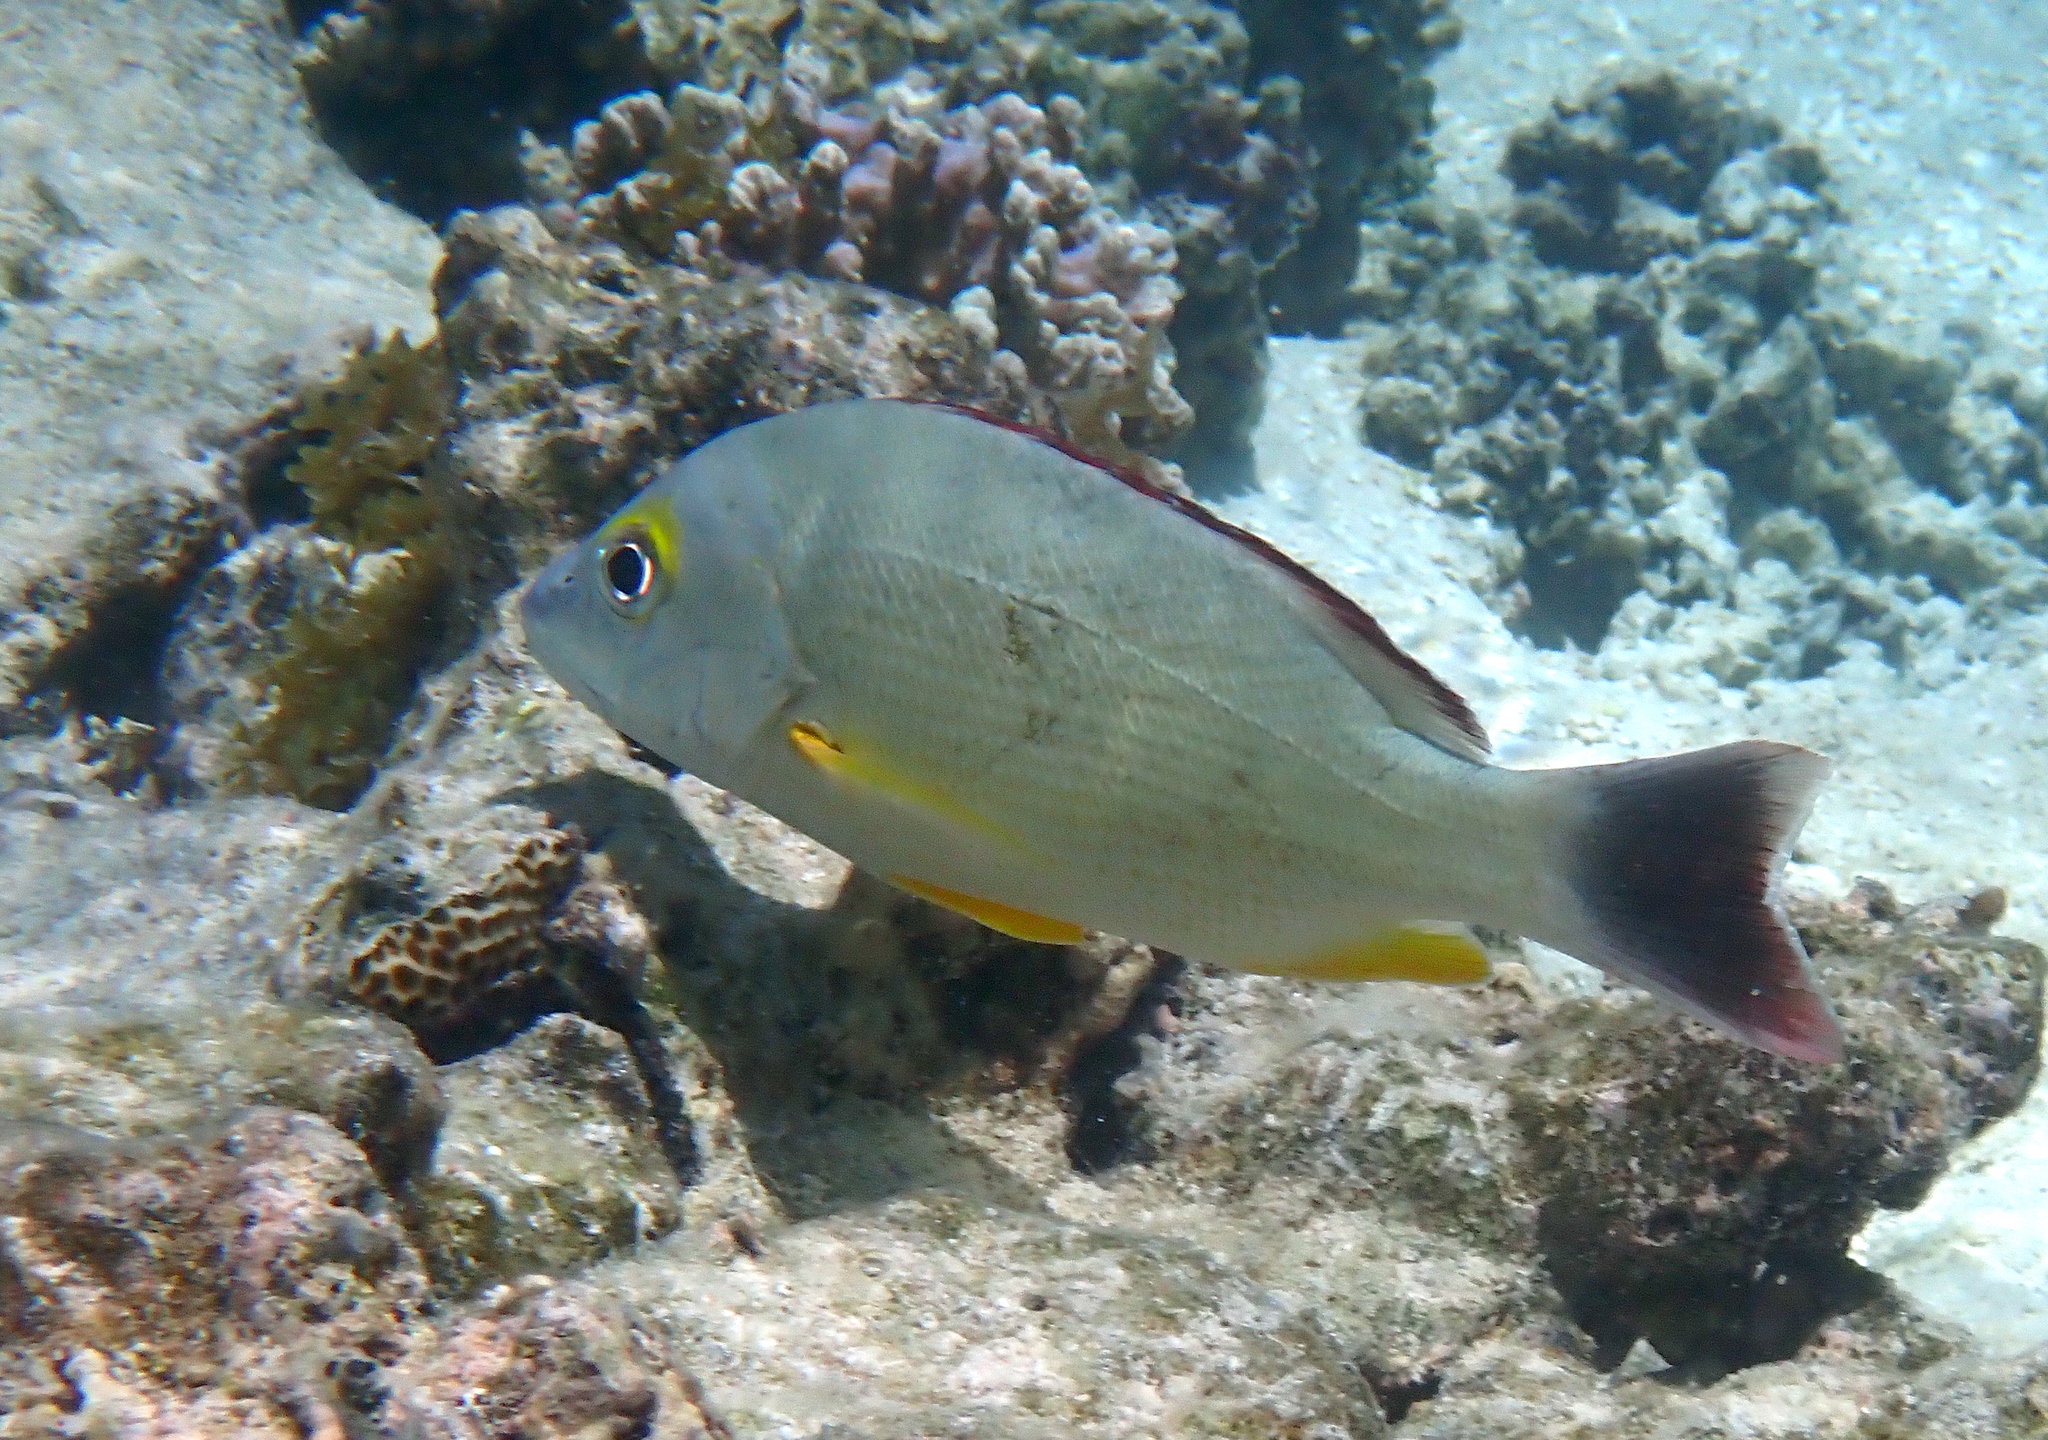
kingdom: Animalia
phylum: Chordata
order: Perciformes
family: Lutjanidae
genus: Lutjanus
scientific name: Lutjanus fulvus
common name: Blacktail snapper
